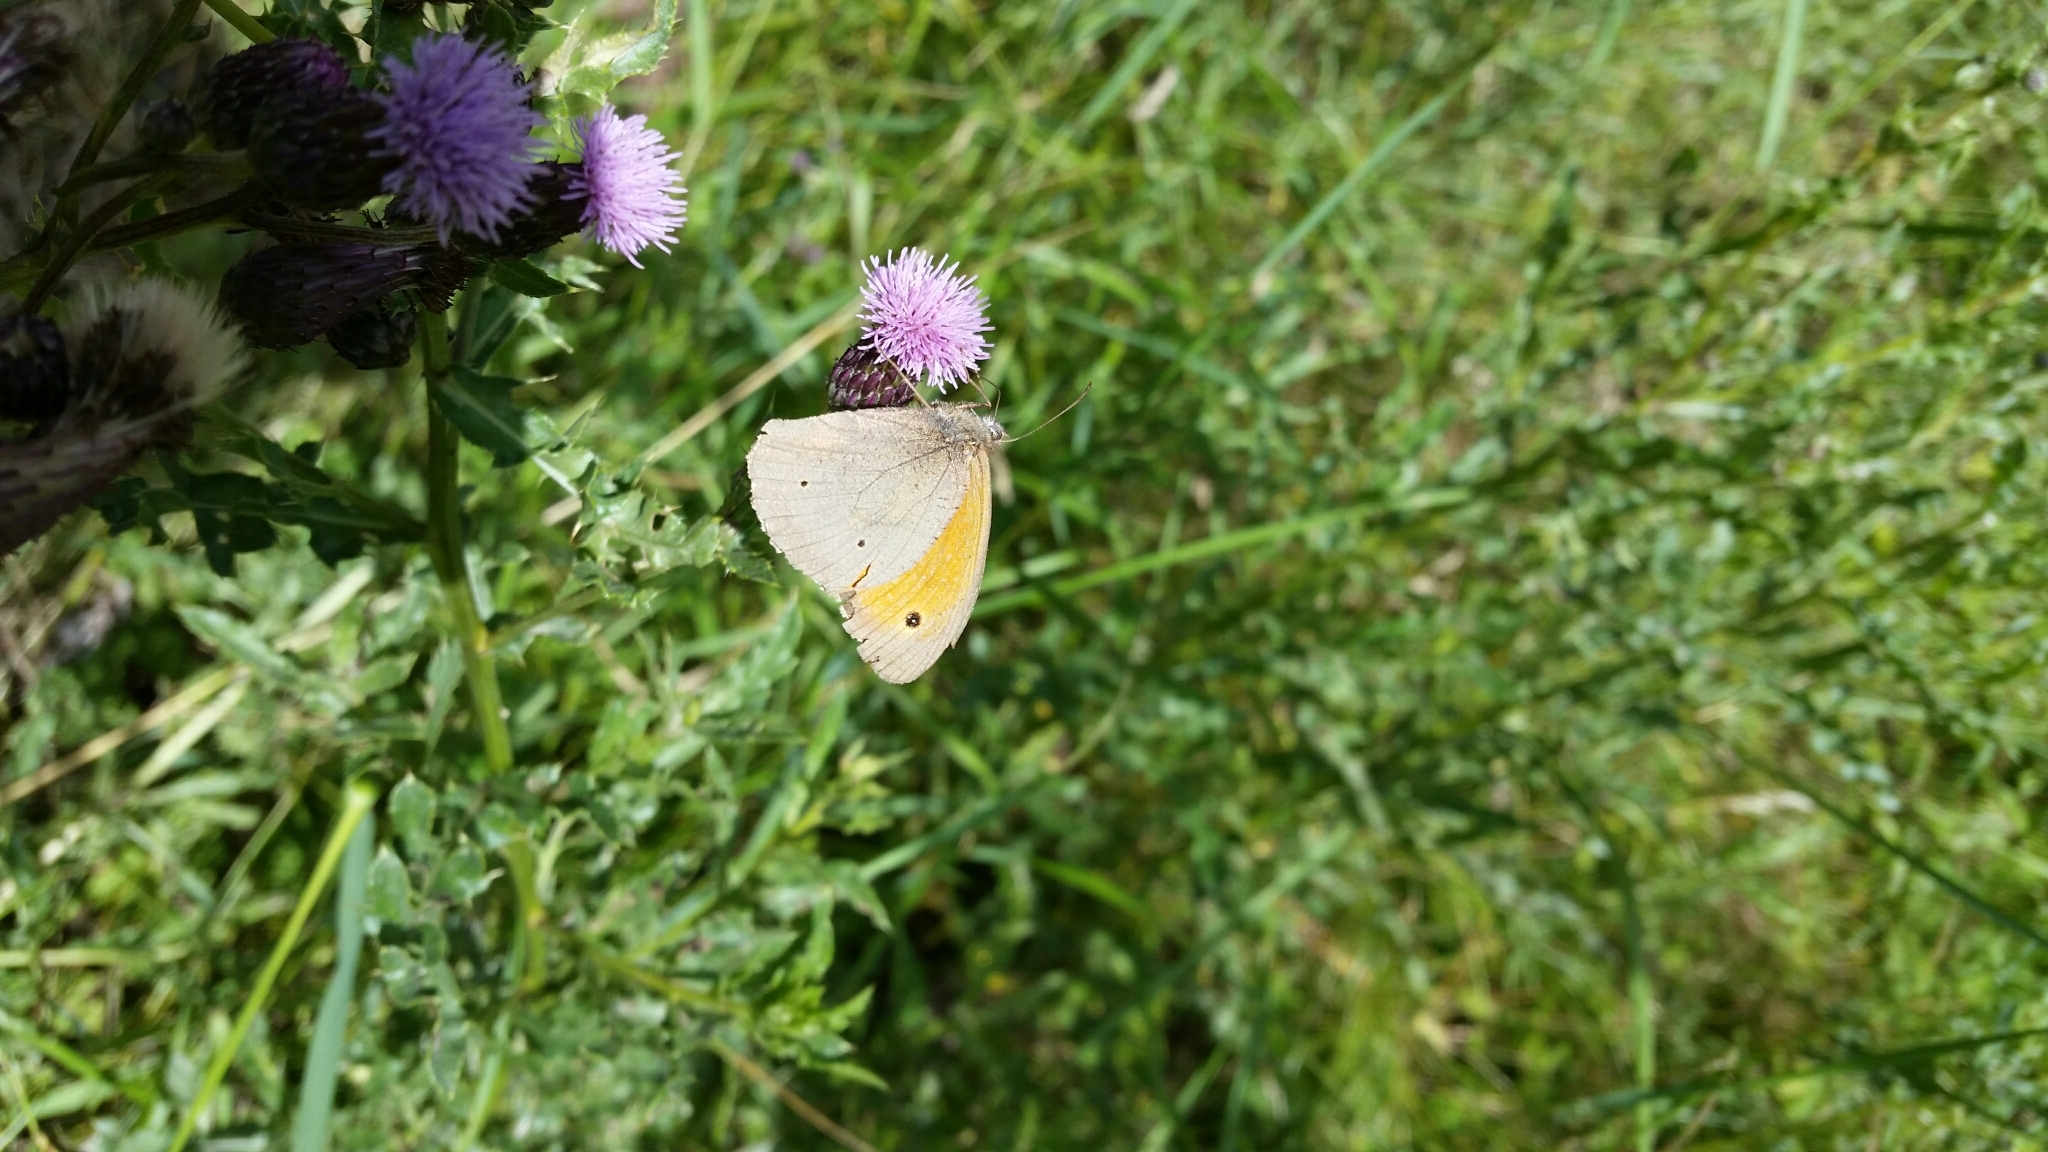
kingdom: Animalia
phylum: Arthropoda
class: Insecta
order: Lepidoptera
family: Nymphalidae
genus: Maniola
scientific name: Maniola jurtina
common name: Meadow brown
